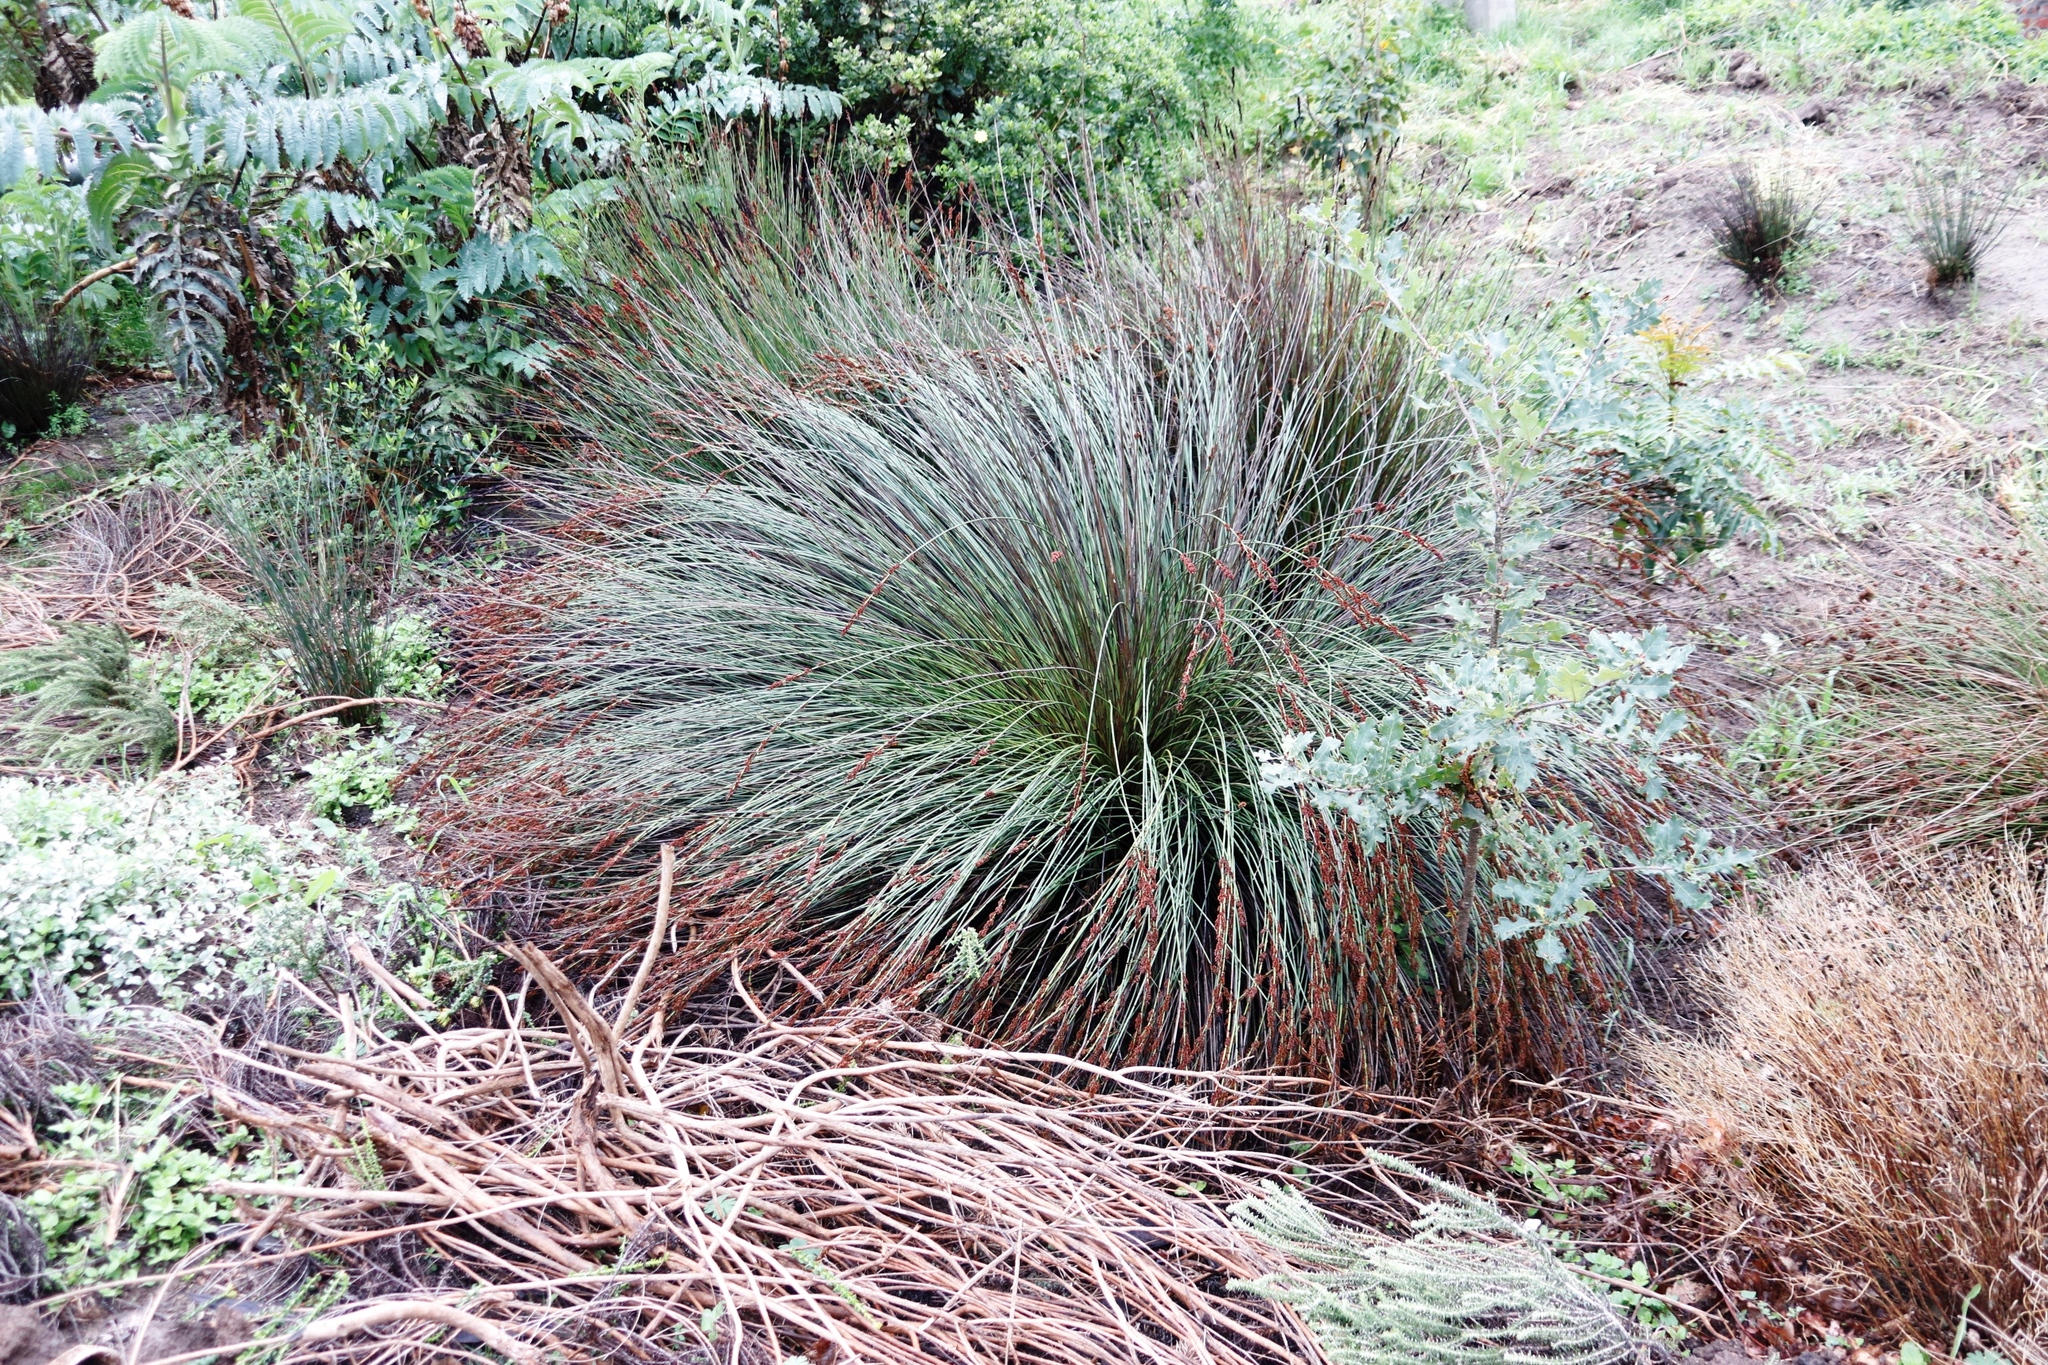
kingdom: Plantae
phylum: Tracheophyta
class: Liliopsida
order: Poales
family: Restionaceae
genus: Elegia
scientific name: Elegia tectorum
